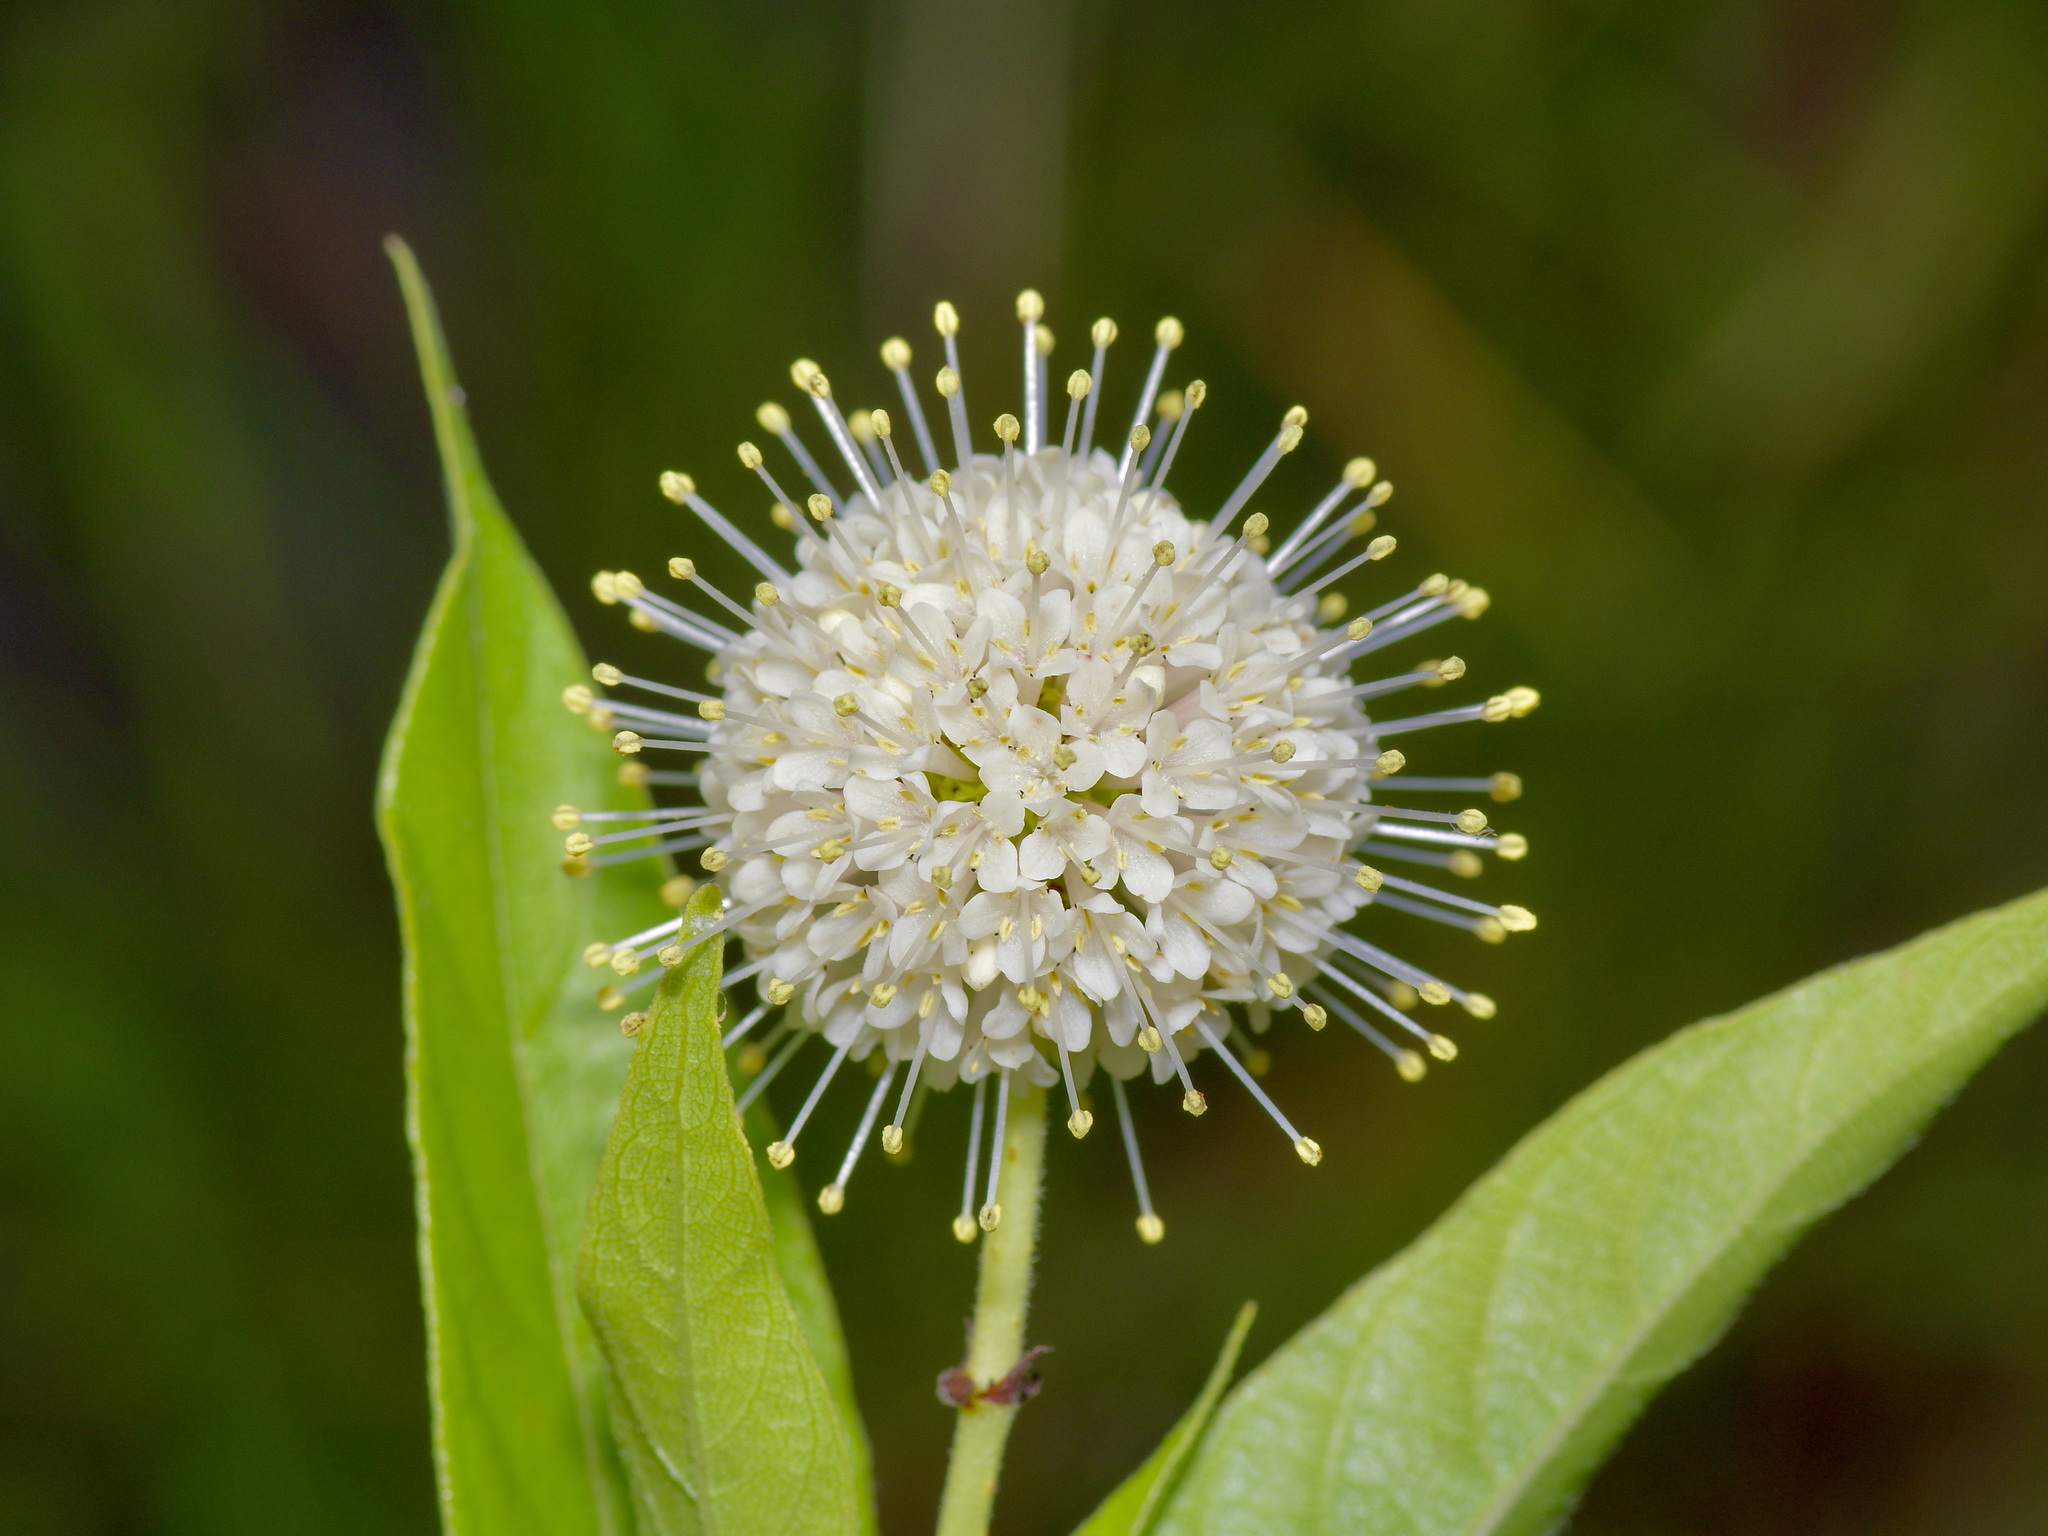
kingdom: Plantae
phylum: Tracheophyta
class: Magnoliopsida
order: Gentianales
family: Rubiaceae
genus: Cephalanthus
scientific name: Cephalanthus occidentalis
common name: Button-willow
